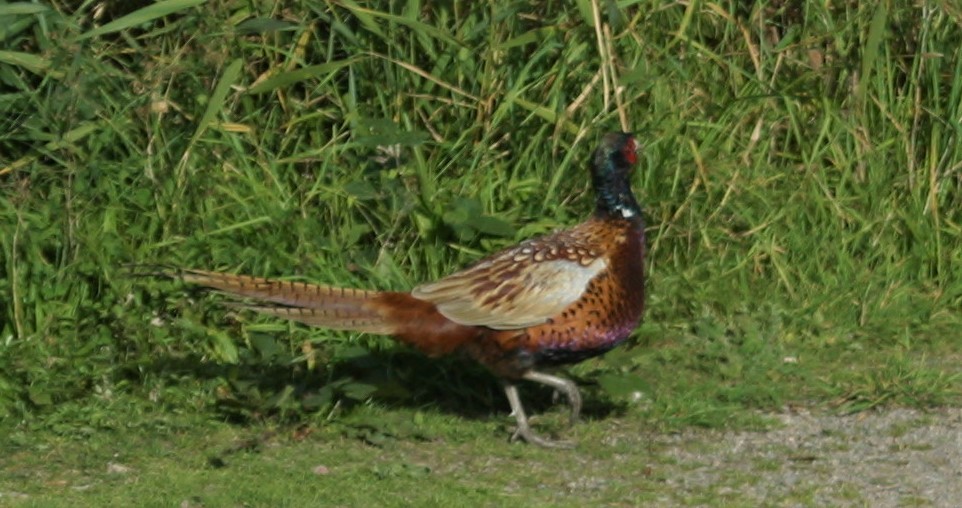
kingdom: Animalia
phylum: Chordata
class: Aves
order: Galliformes
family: Phasianidae
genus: Phasianus
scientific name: Phasianus colchicus
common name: Common pheasant
